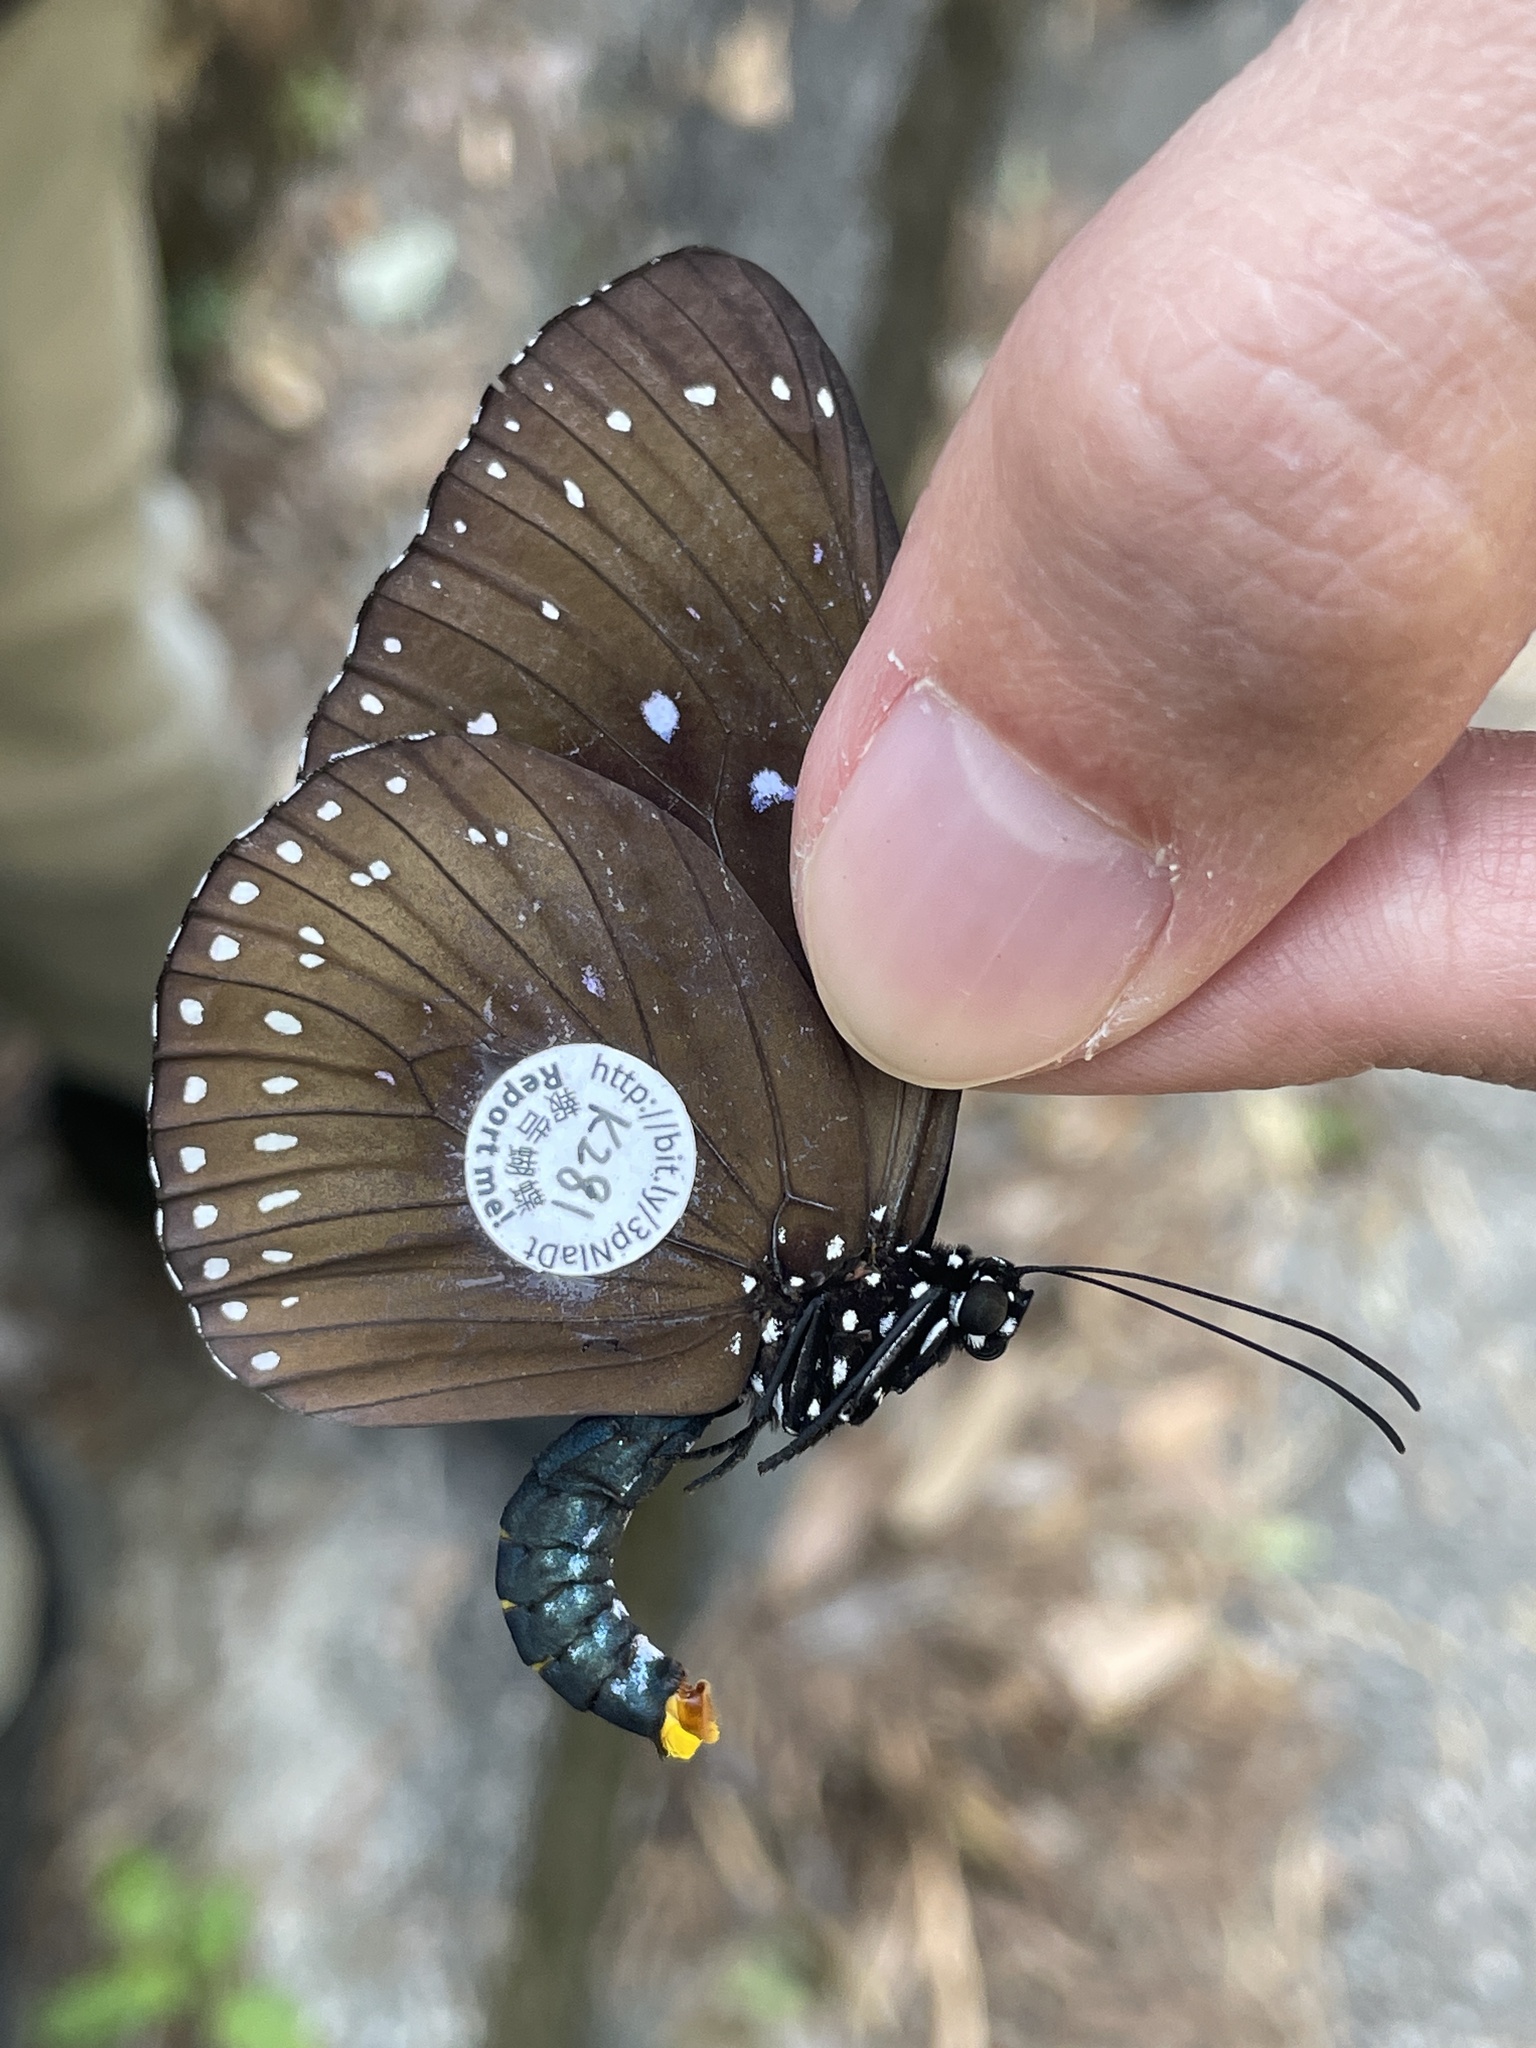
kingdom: Animalia
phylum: Arthropoda
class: Insecta
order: Lepidoptera
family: Nymphalidae
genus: Euploea
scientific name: Euploea midamus
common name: Blue-spotted crow butterfly
